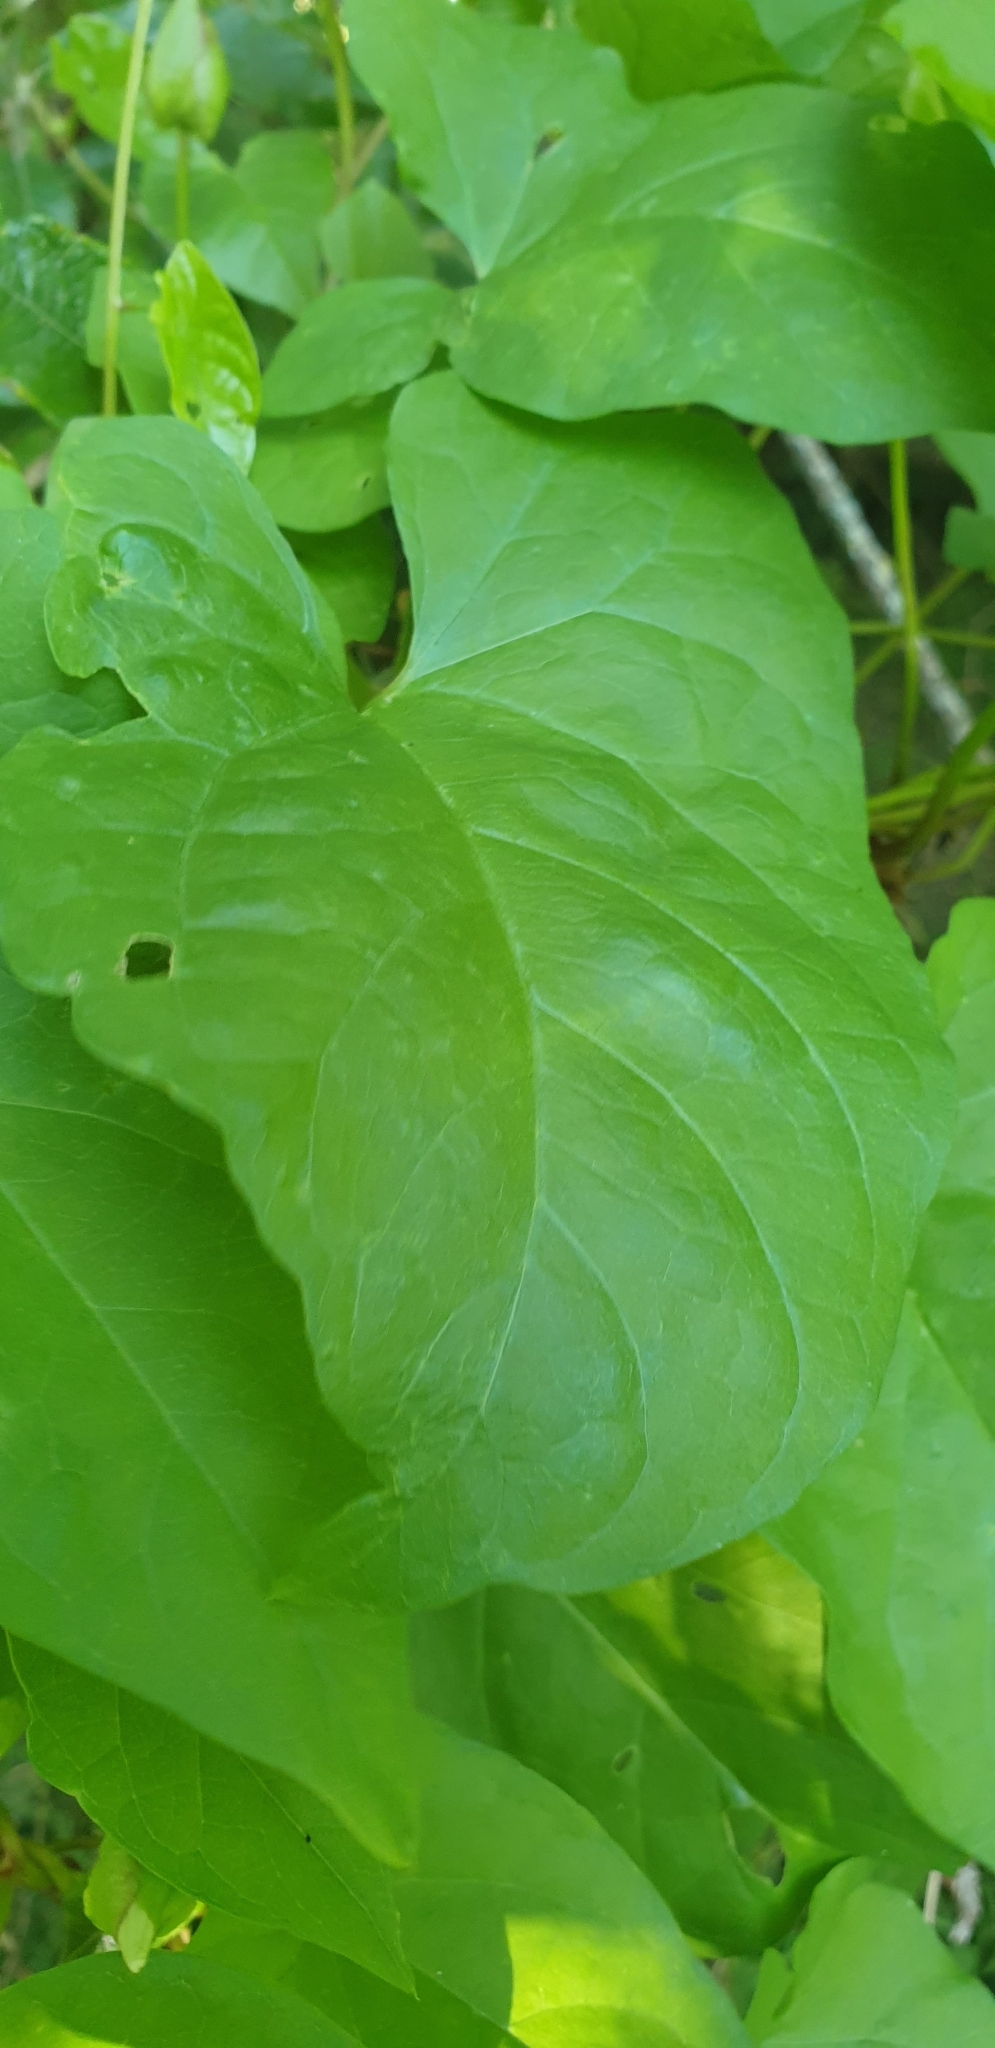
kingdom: Plantae
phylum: Tracheophyta
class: Magnoliopsida
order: Solanales
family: Convolvulaceae
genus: Calystegia
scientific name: Calystegia silvatica
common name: Large bindweed
